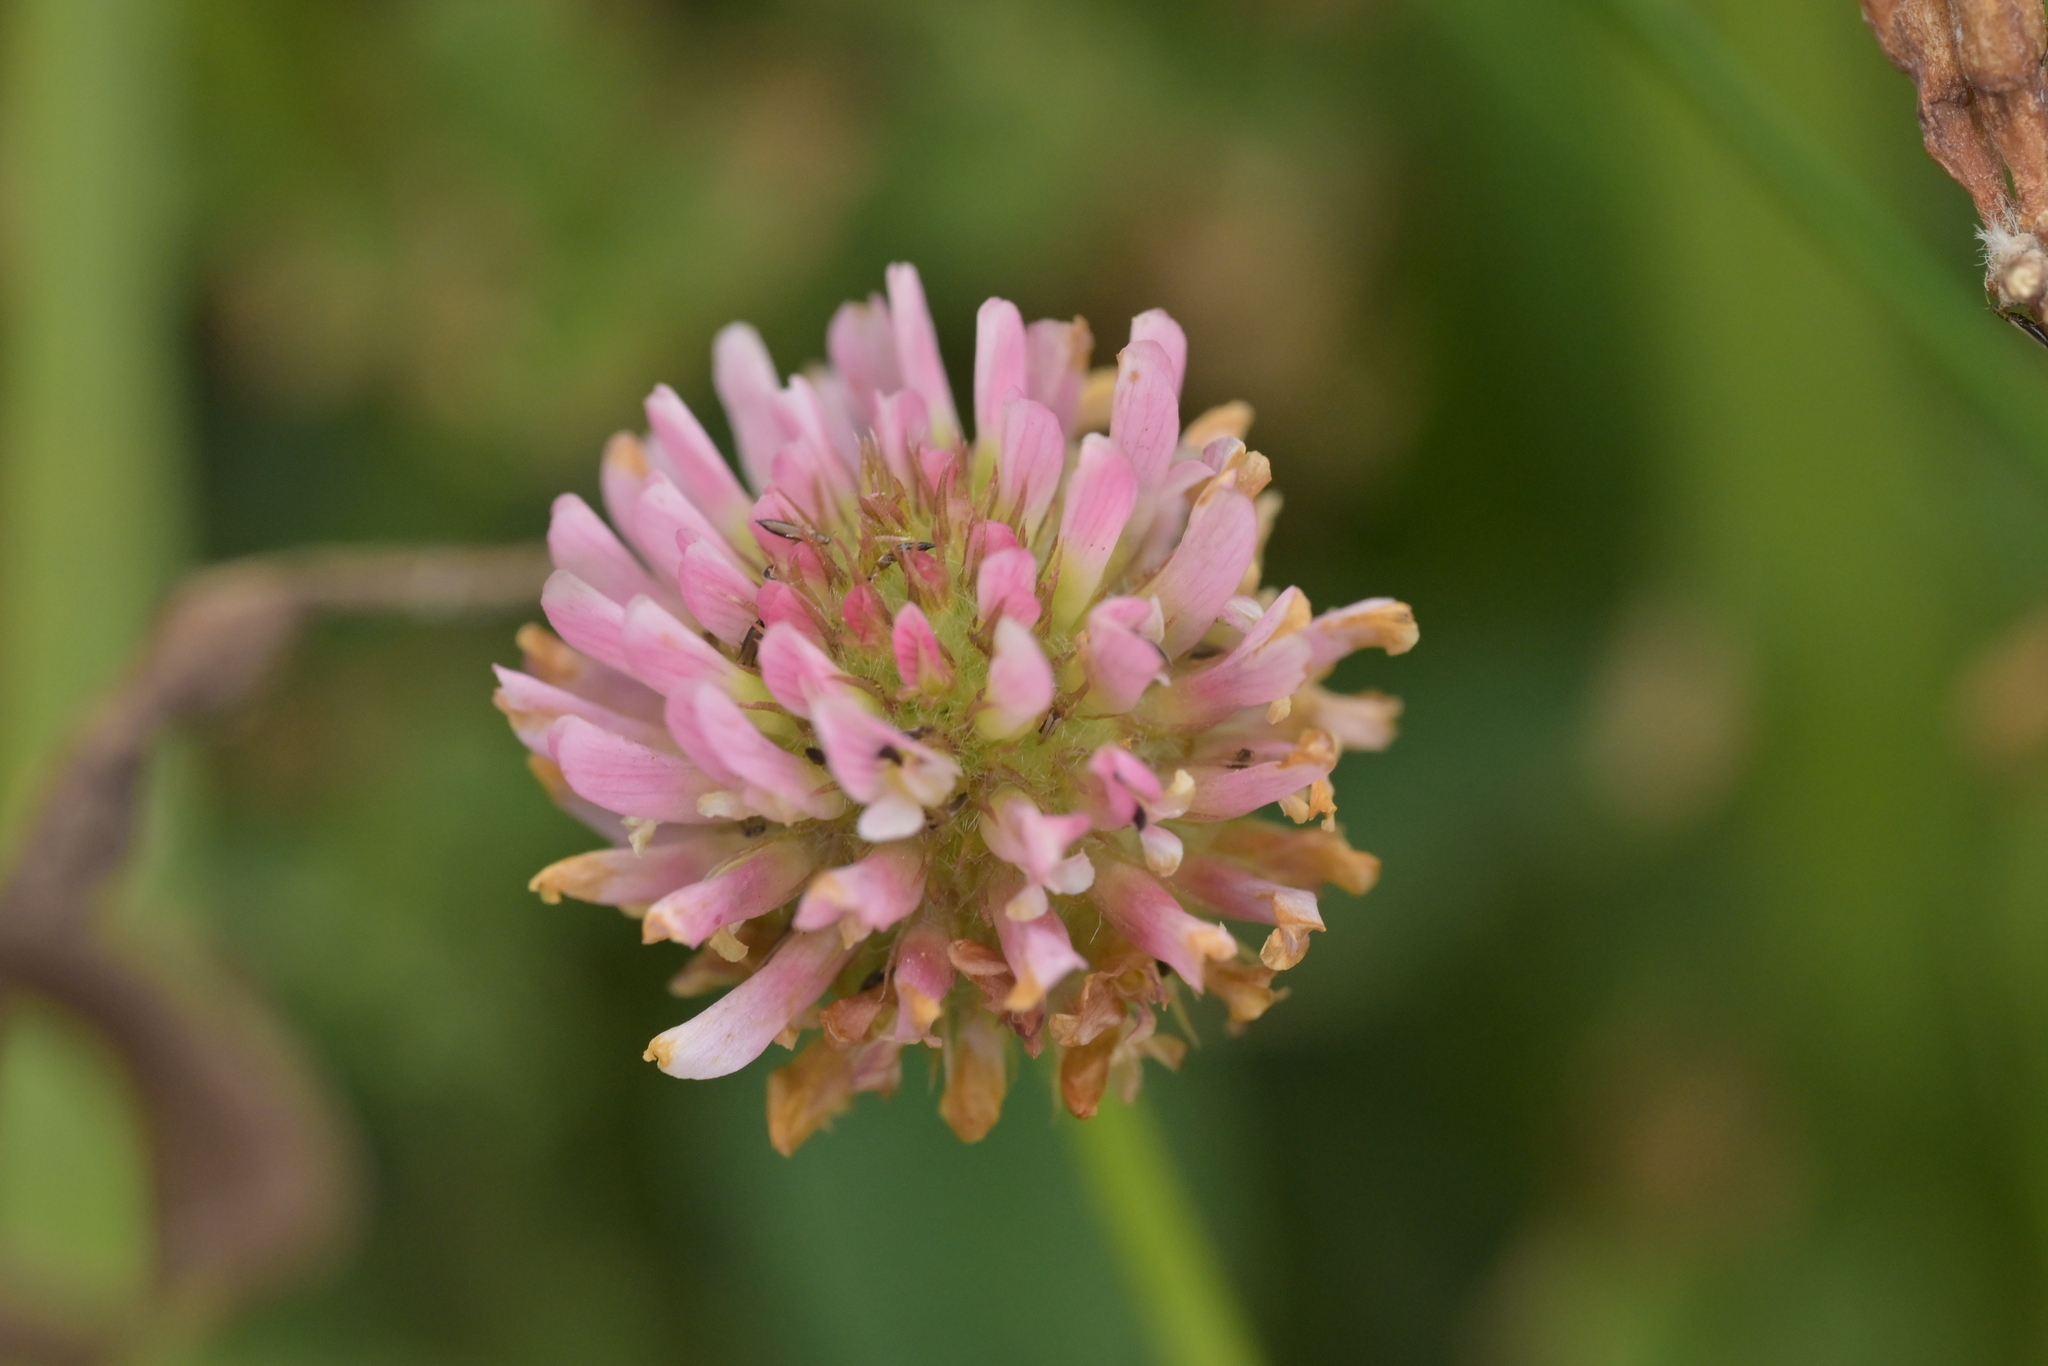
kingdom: Plantae
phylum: Tracheophyta
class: Magnoliopsida
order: Fabales
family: Fabaceae
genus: Trifolium
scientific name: Trifolium fragiferum
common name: Strawberry clover
